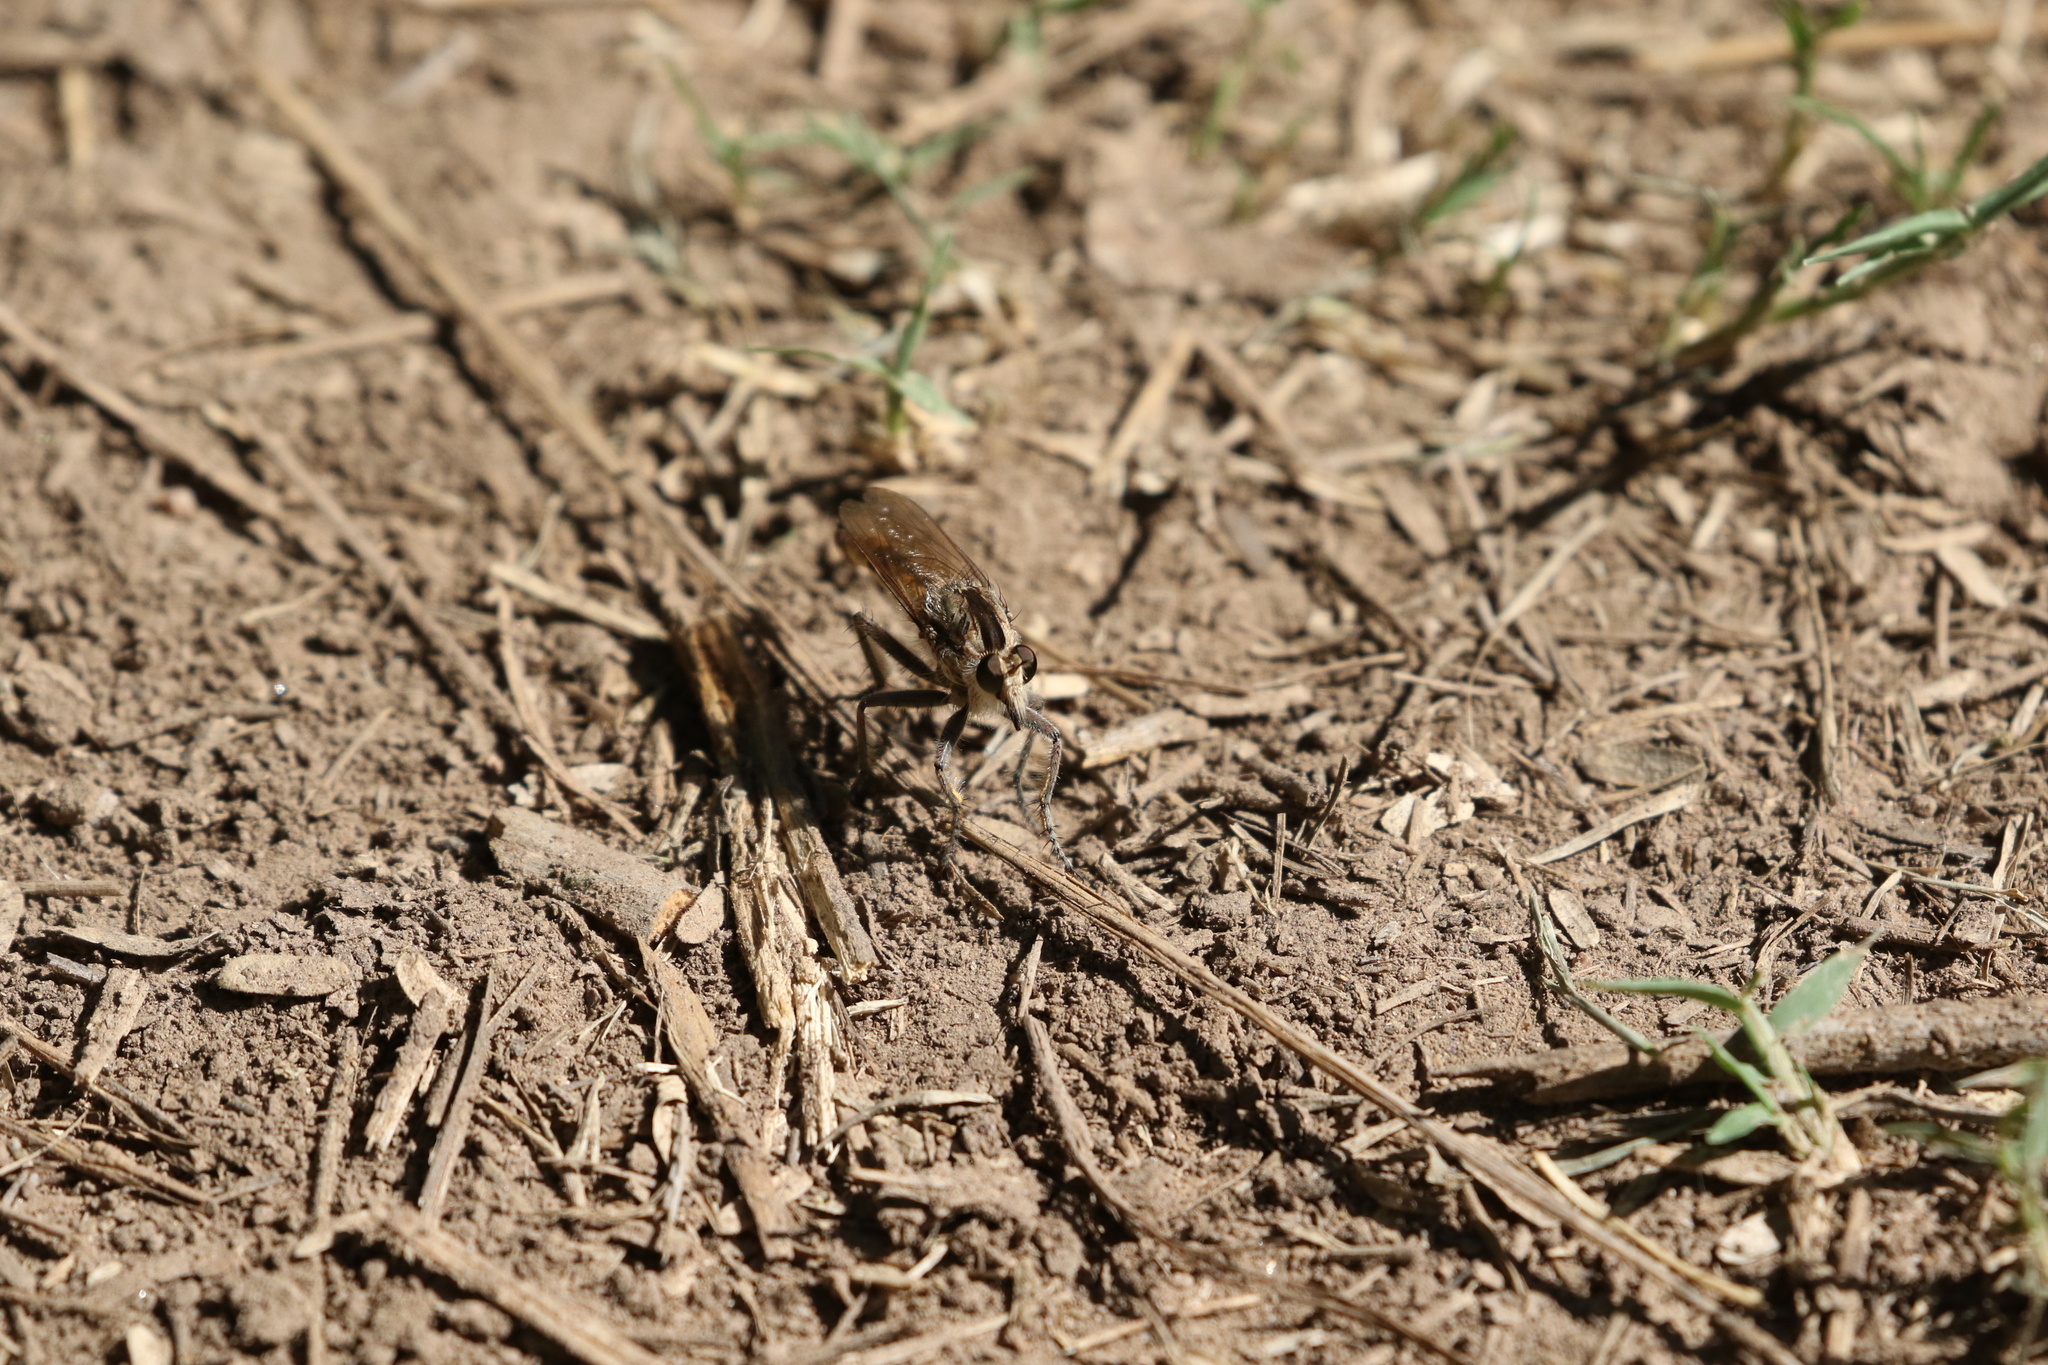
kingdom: Animalia
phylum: Arthropoda
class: Insecta
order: Diptera
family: Asilidae
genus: Triorla
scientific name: Triorla interrupta
